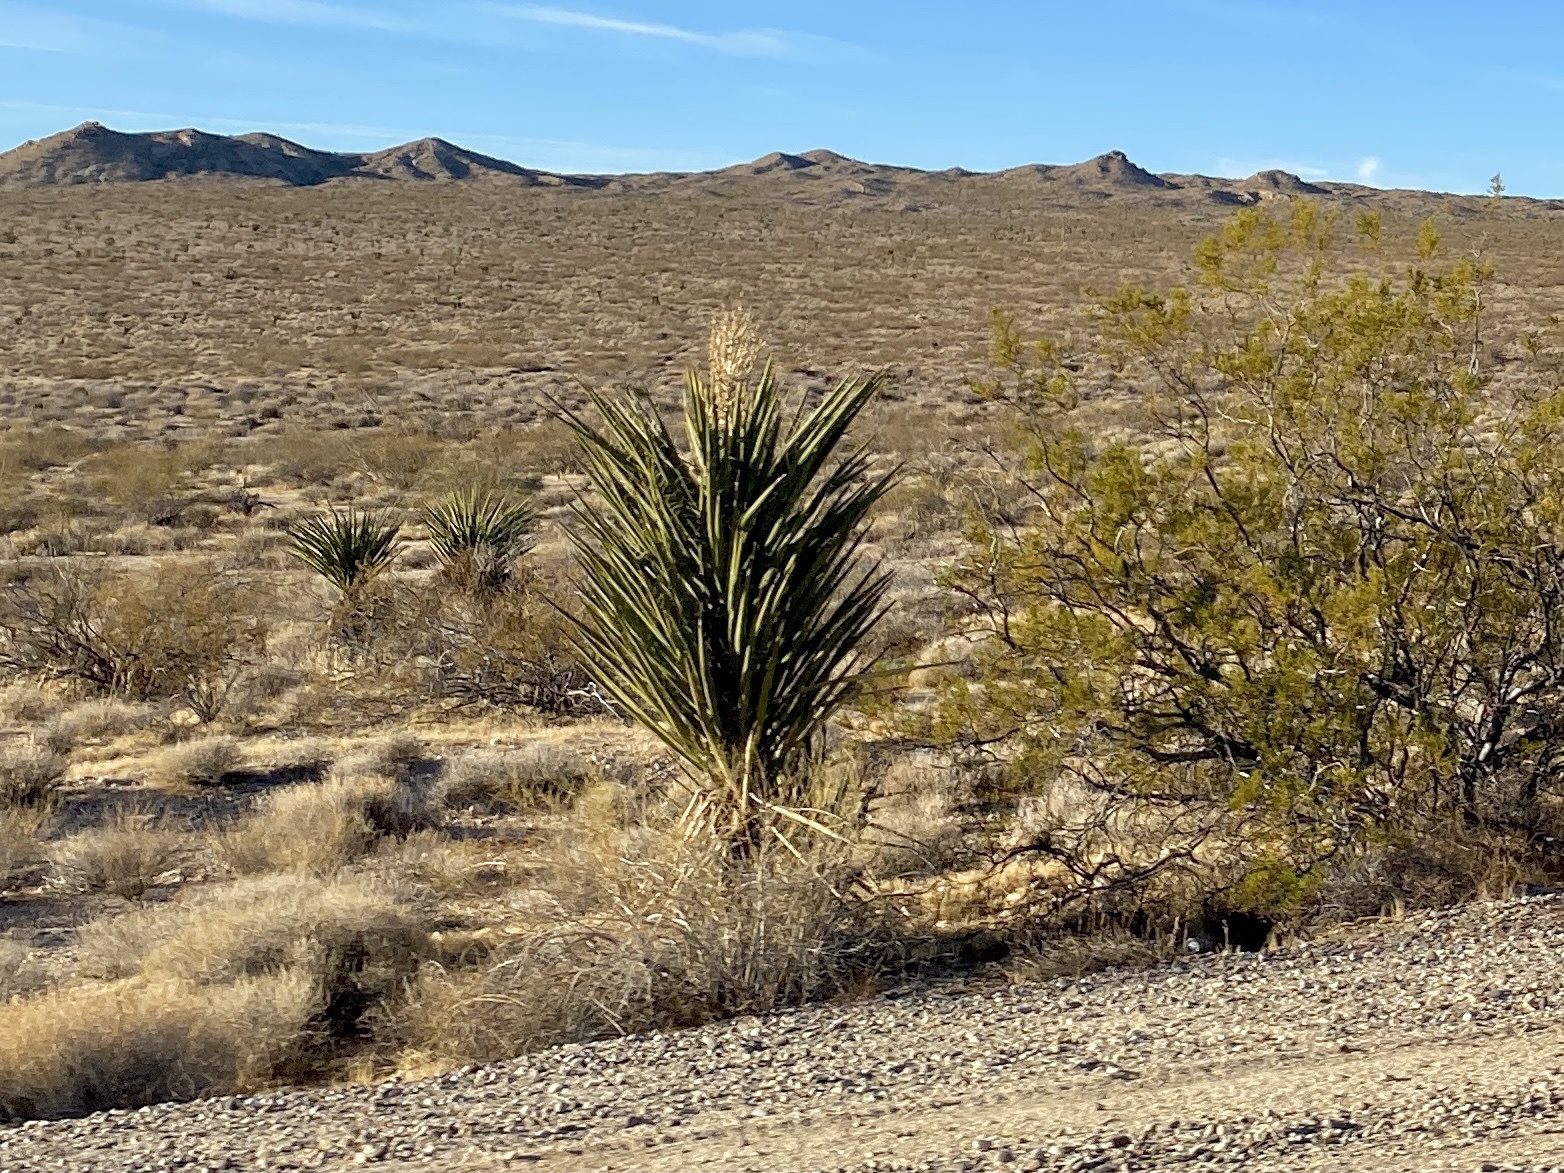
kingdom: Plantae
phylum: Tracheophyta
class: Liliopsida
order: Asparagales
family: Asparagaceae
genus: Yucca
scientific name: Yucca schidigera
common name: Mojave yucca
